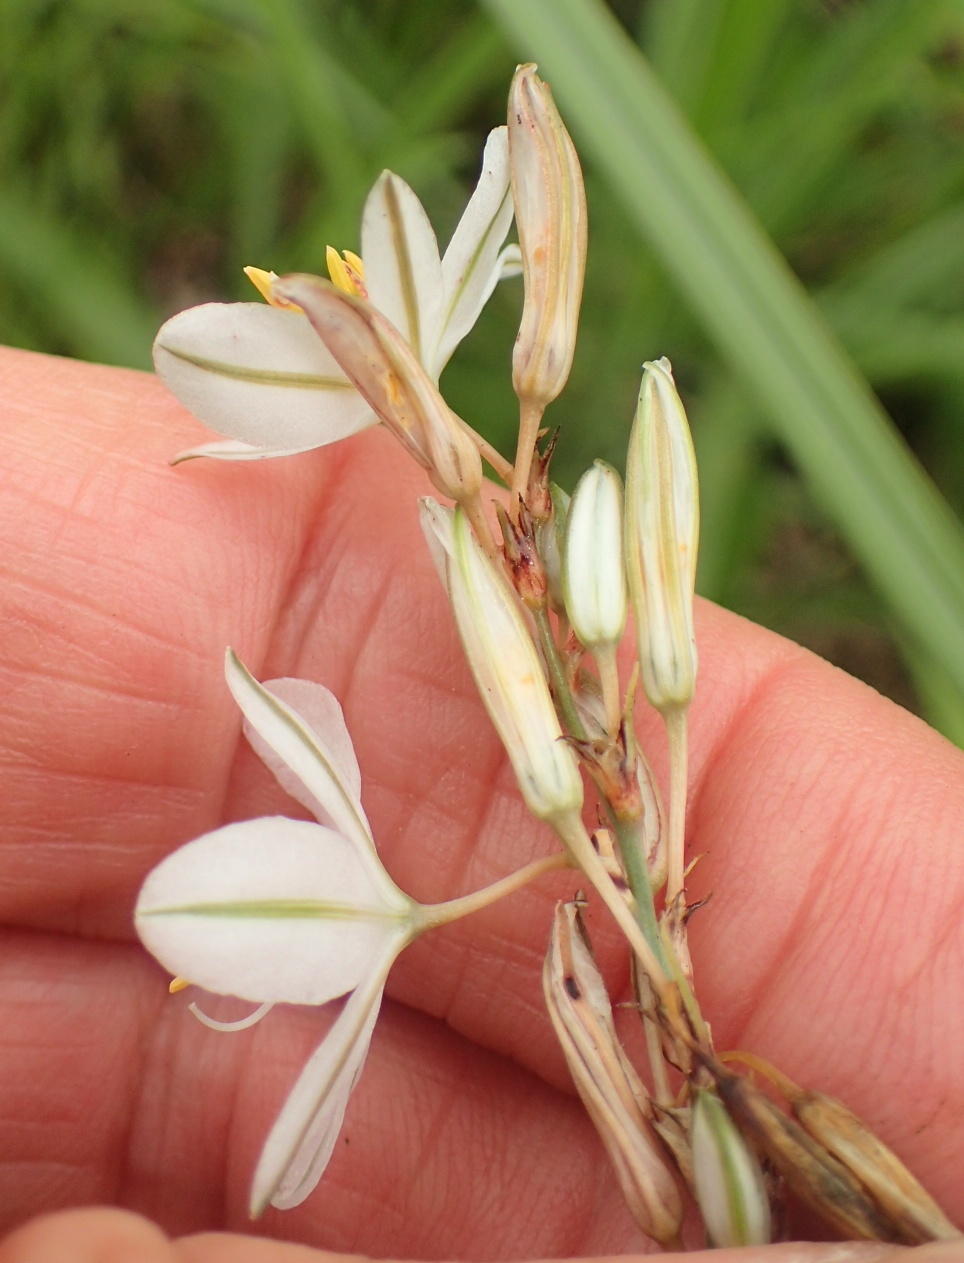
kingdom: Plantae
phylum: Tracheophyta
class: Liliopsida
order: Asparagales
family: Asparagaceae
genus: Chlorophytum
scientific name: Chlorophytum cooperi
